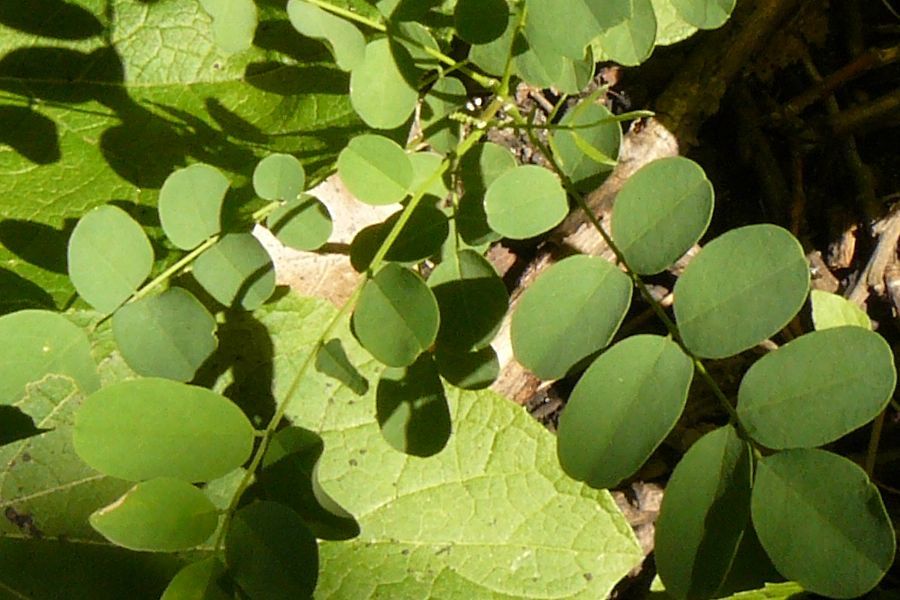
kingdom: Plantae
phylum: Tracheophyta
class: Magnoliopsida
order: Fabales
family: Fabaceae
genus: Robinia
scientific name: Robinia pseudoacacia
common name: Black locust
